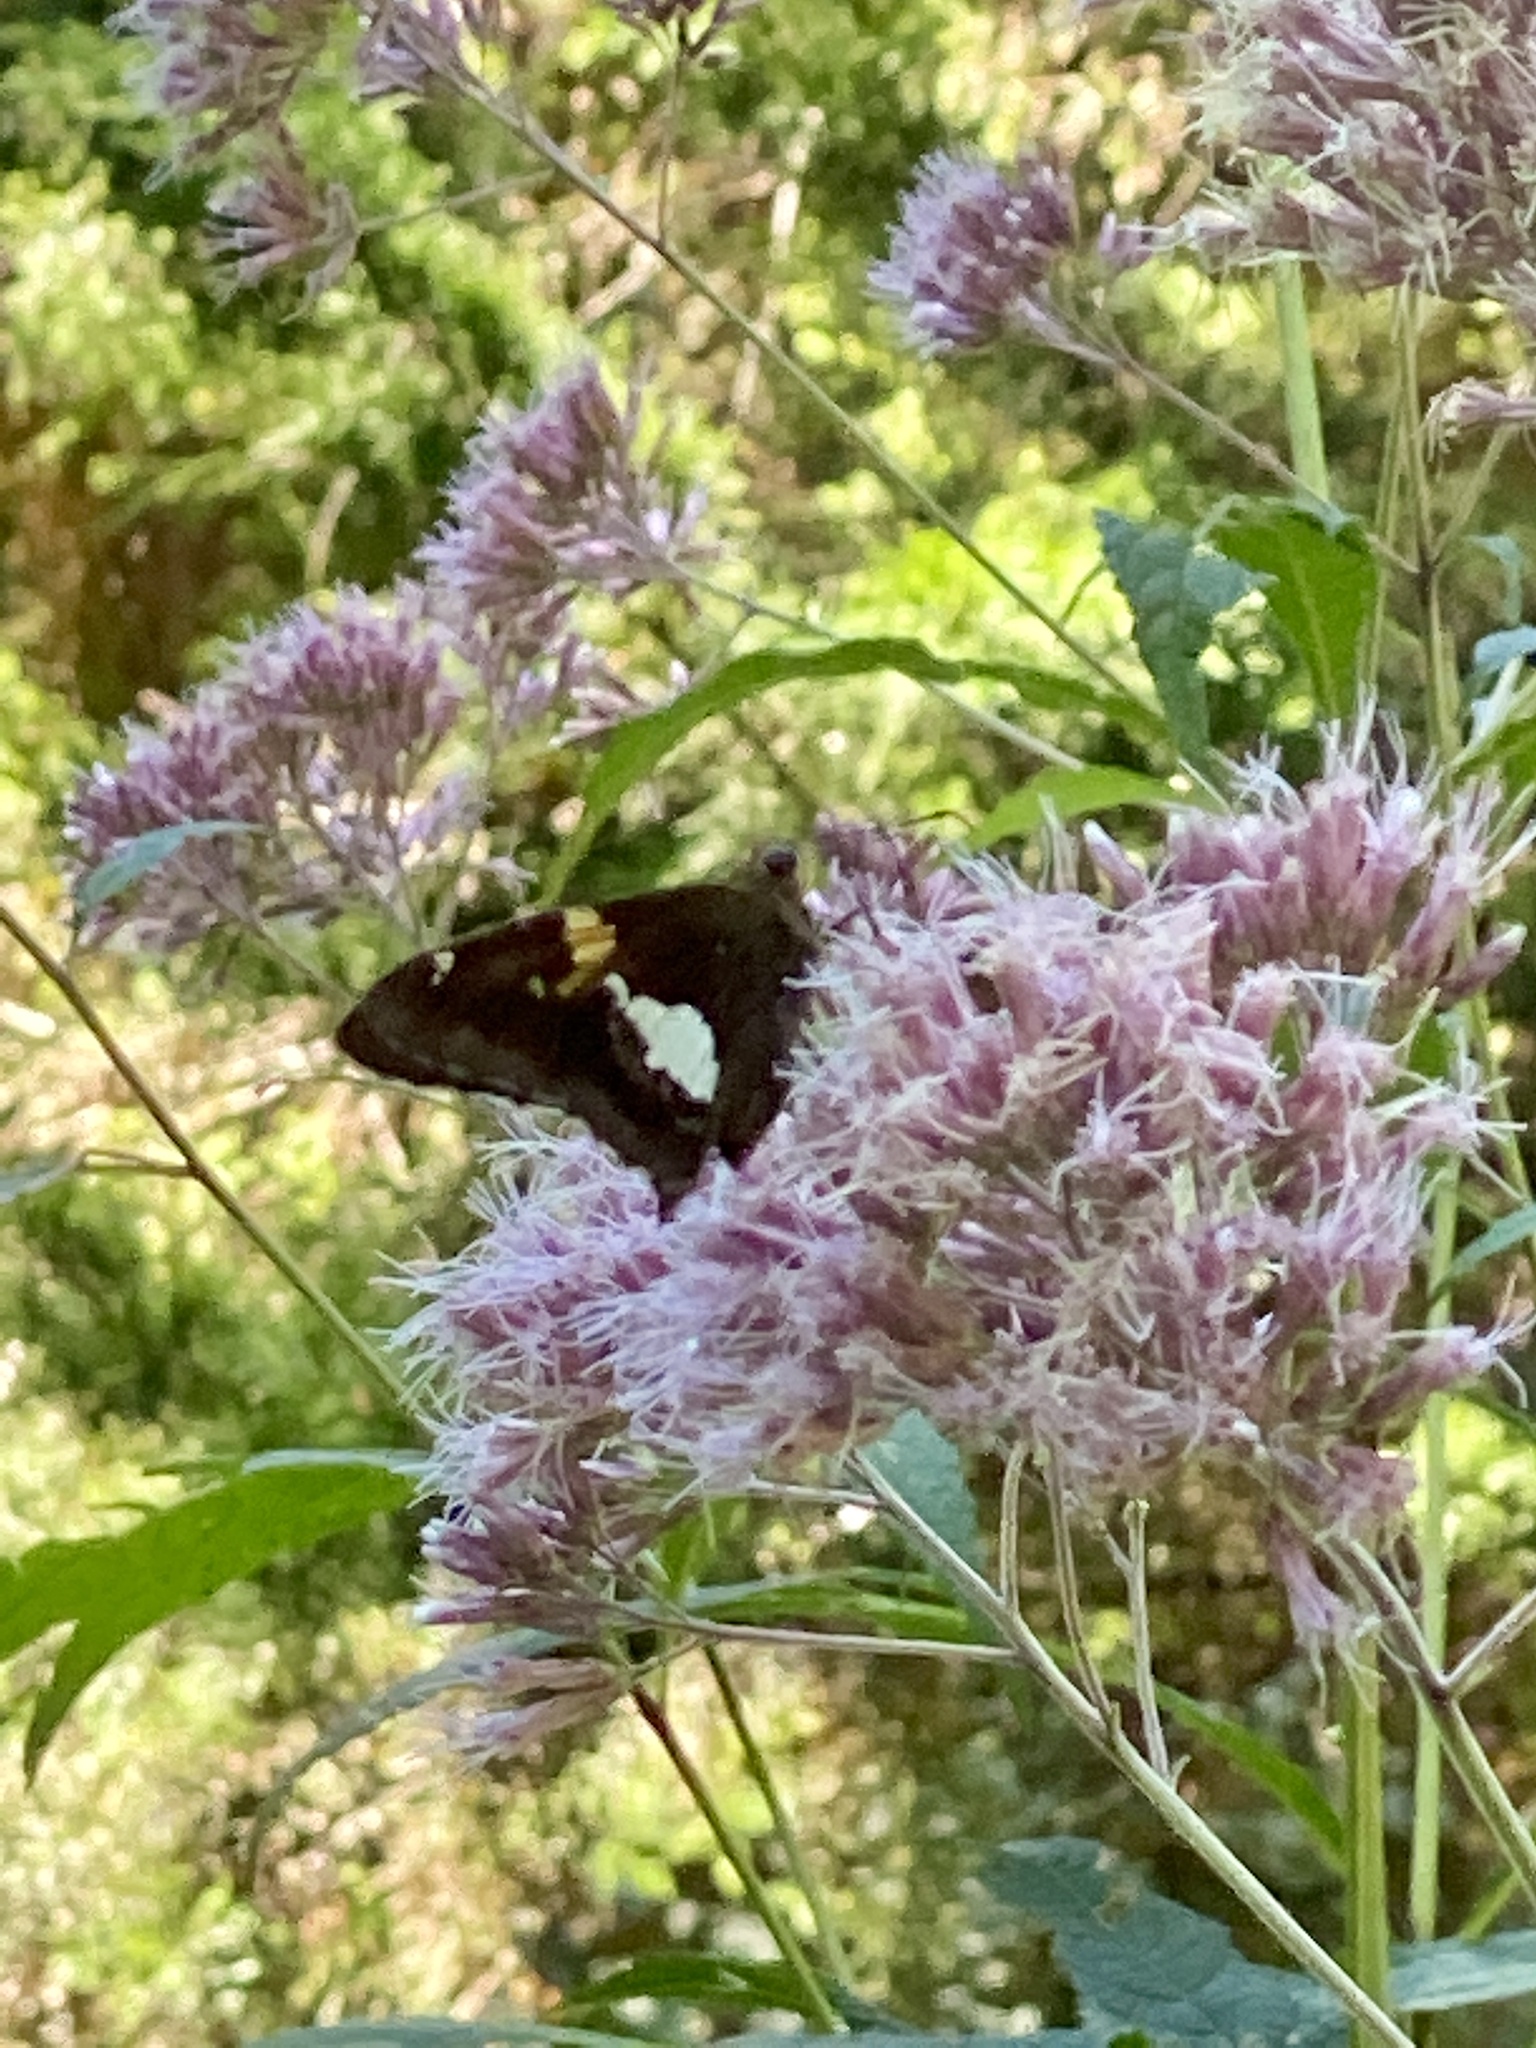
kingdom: Animalia
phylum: Arthropoda
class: Insecta
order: Lepidoptera
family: Hesperiidae
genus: Epargyreus
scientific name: Epargyreus clarus
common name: Silver-spotted skipper
